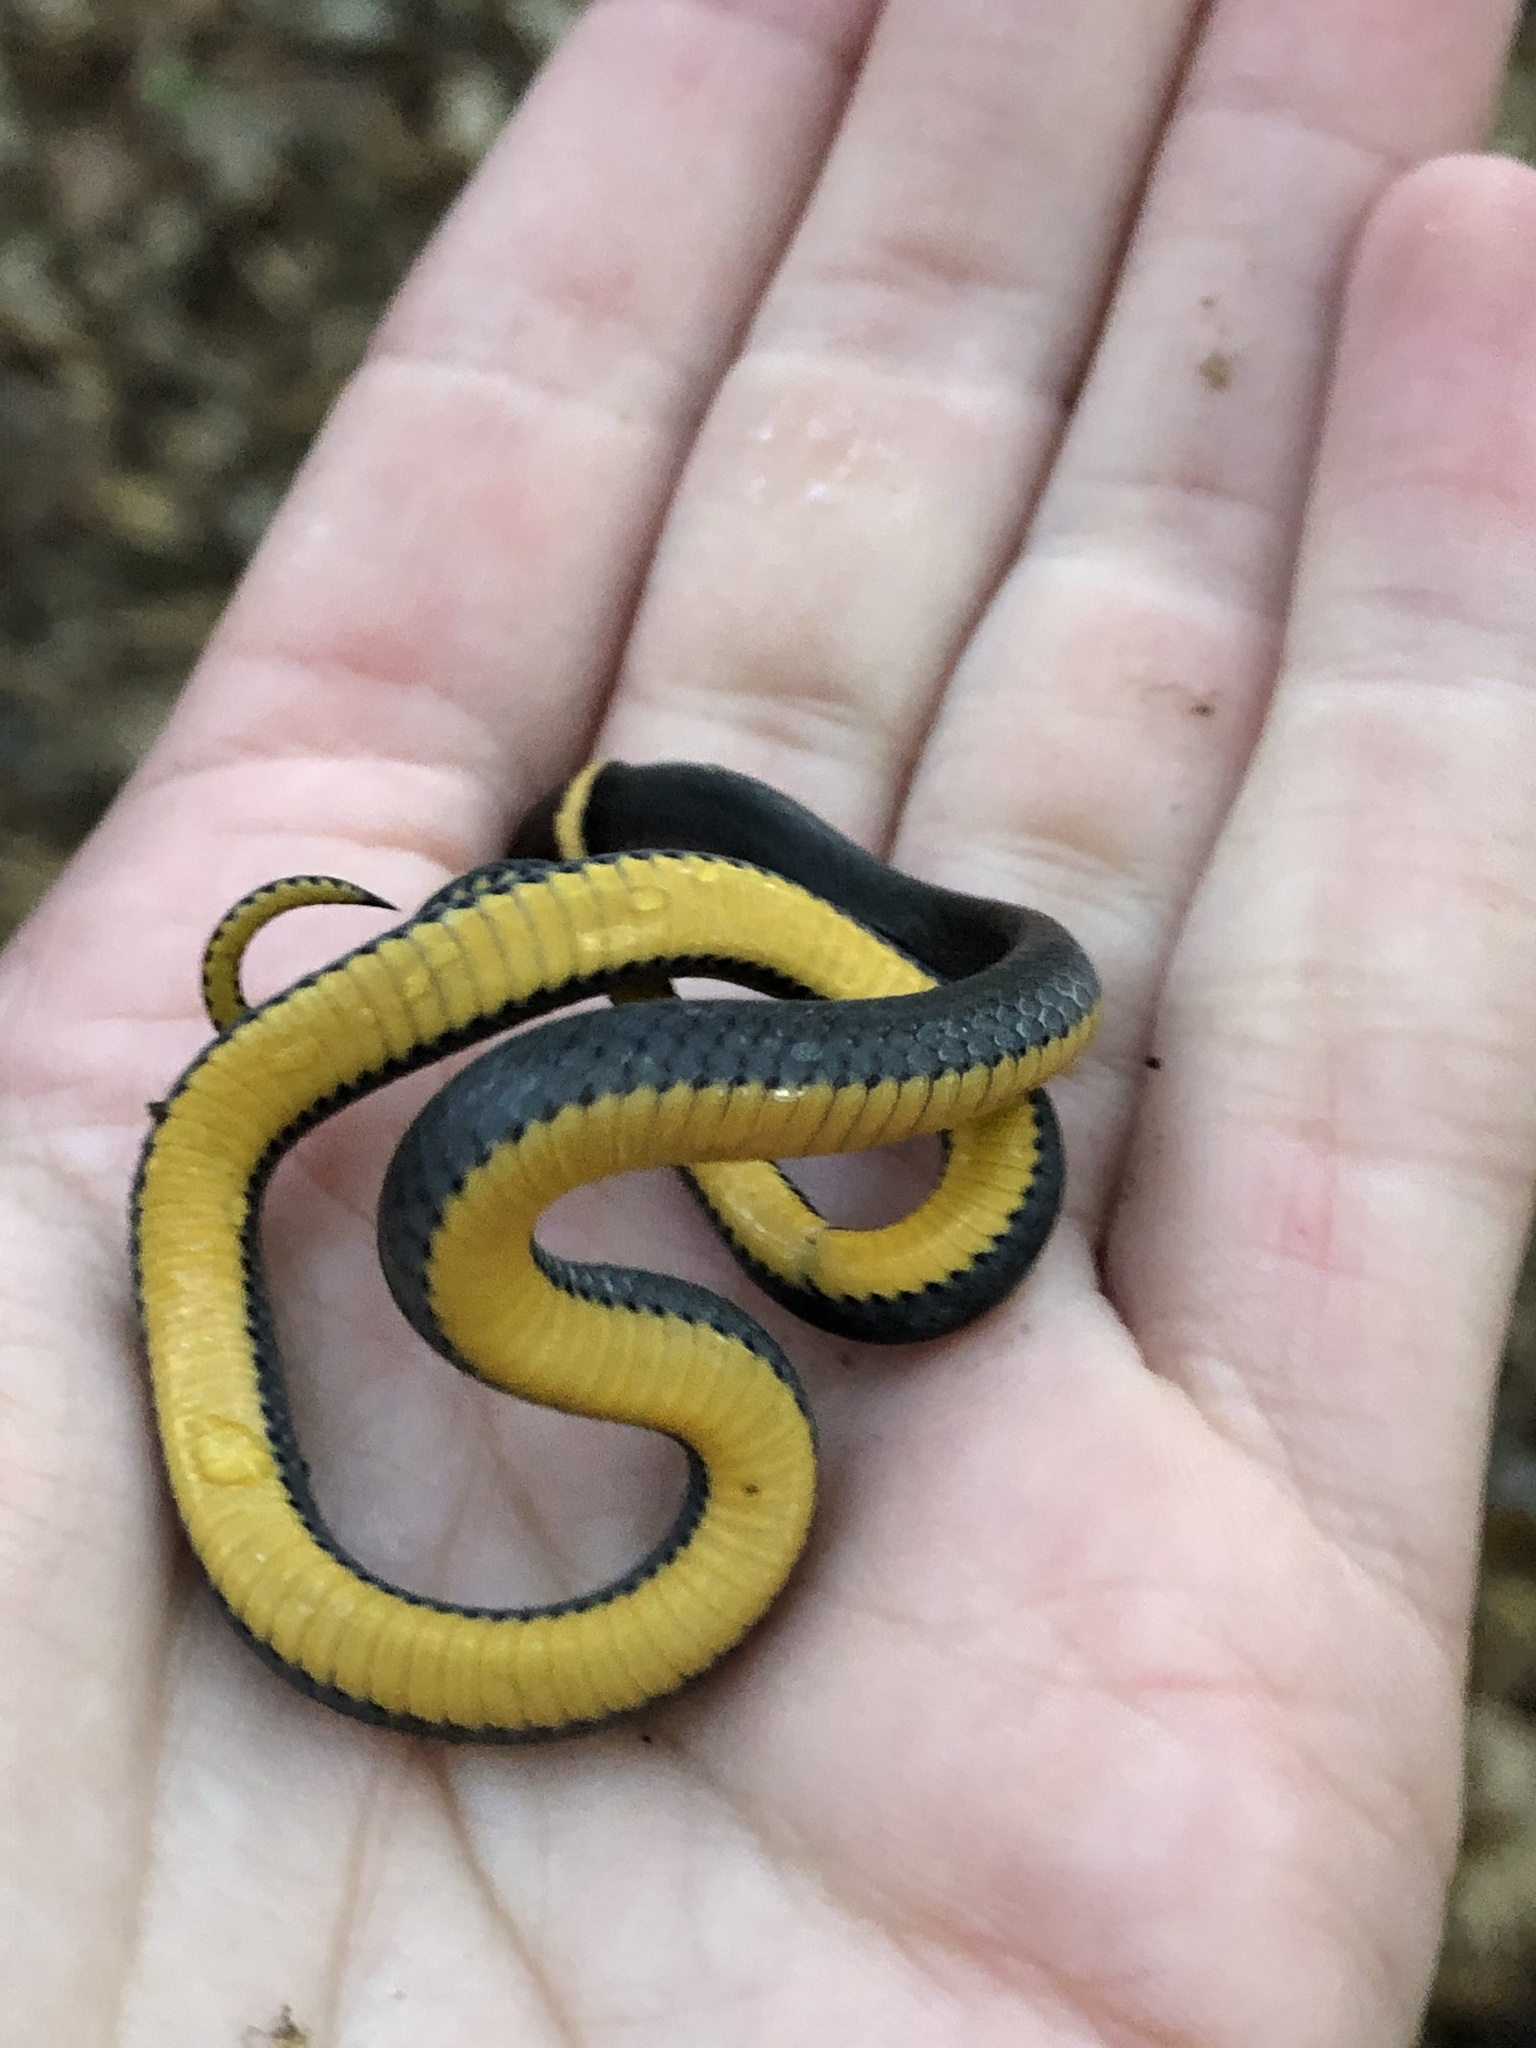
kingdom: Animalia
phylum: Chordata
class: Squamata
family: Colubridae
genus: Diadophis
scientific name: Diadophis punctatus
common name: Ringneck snake
